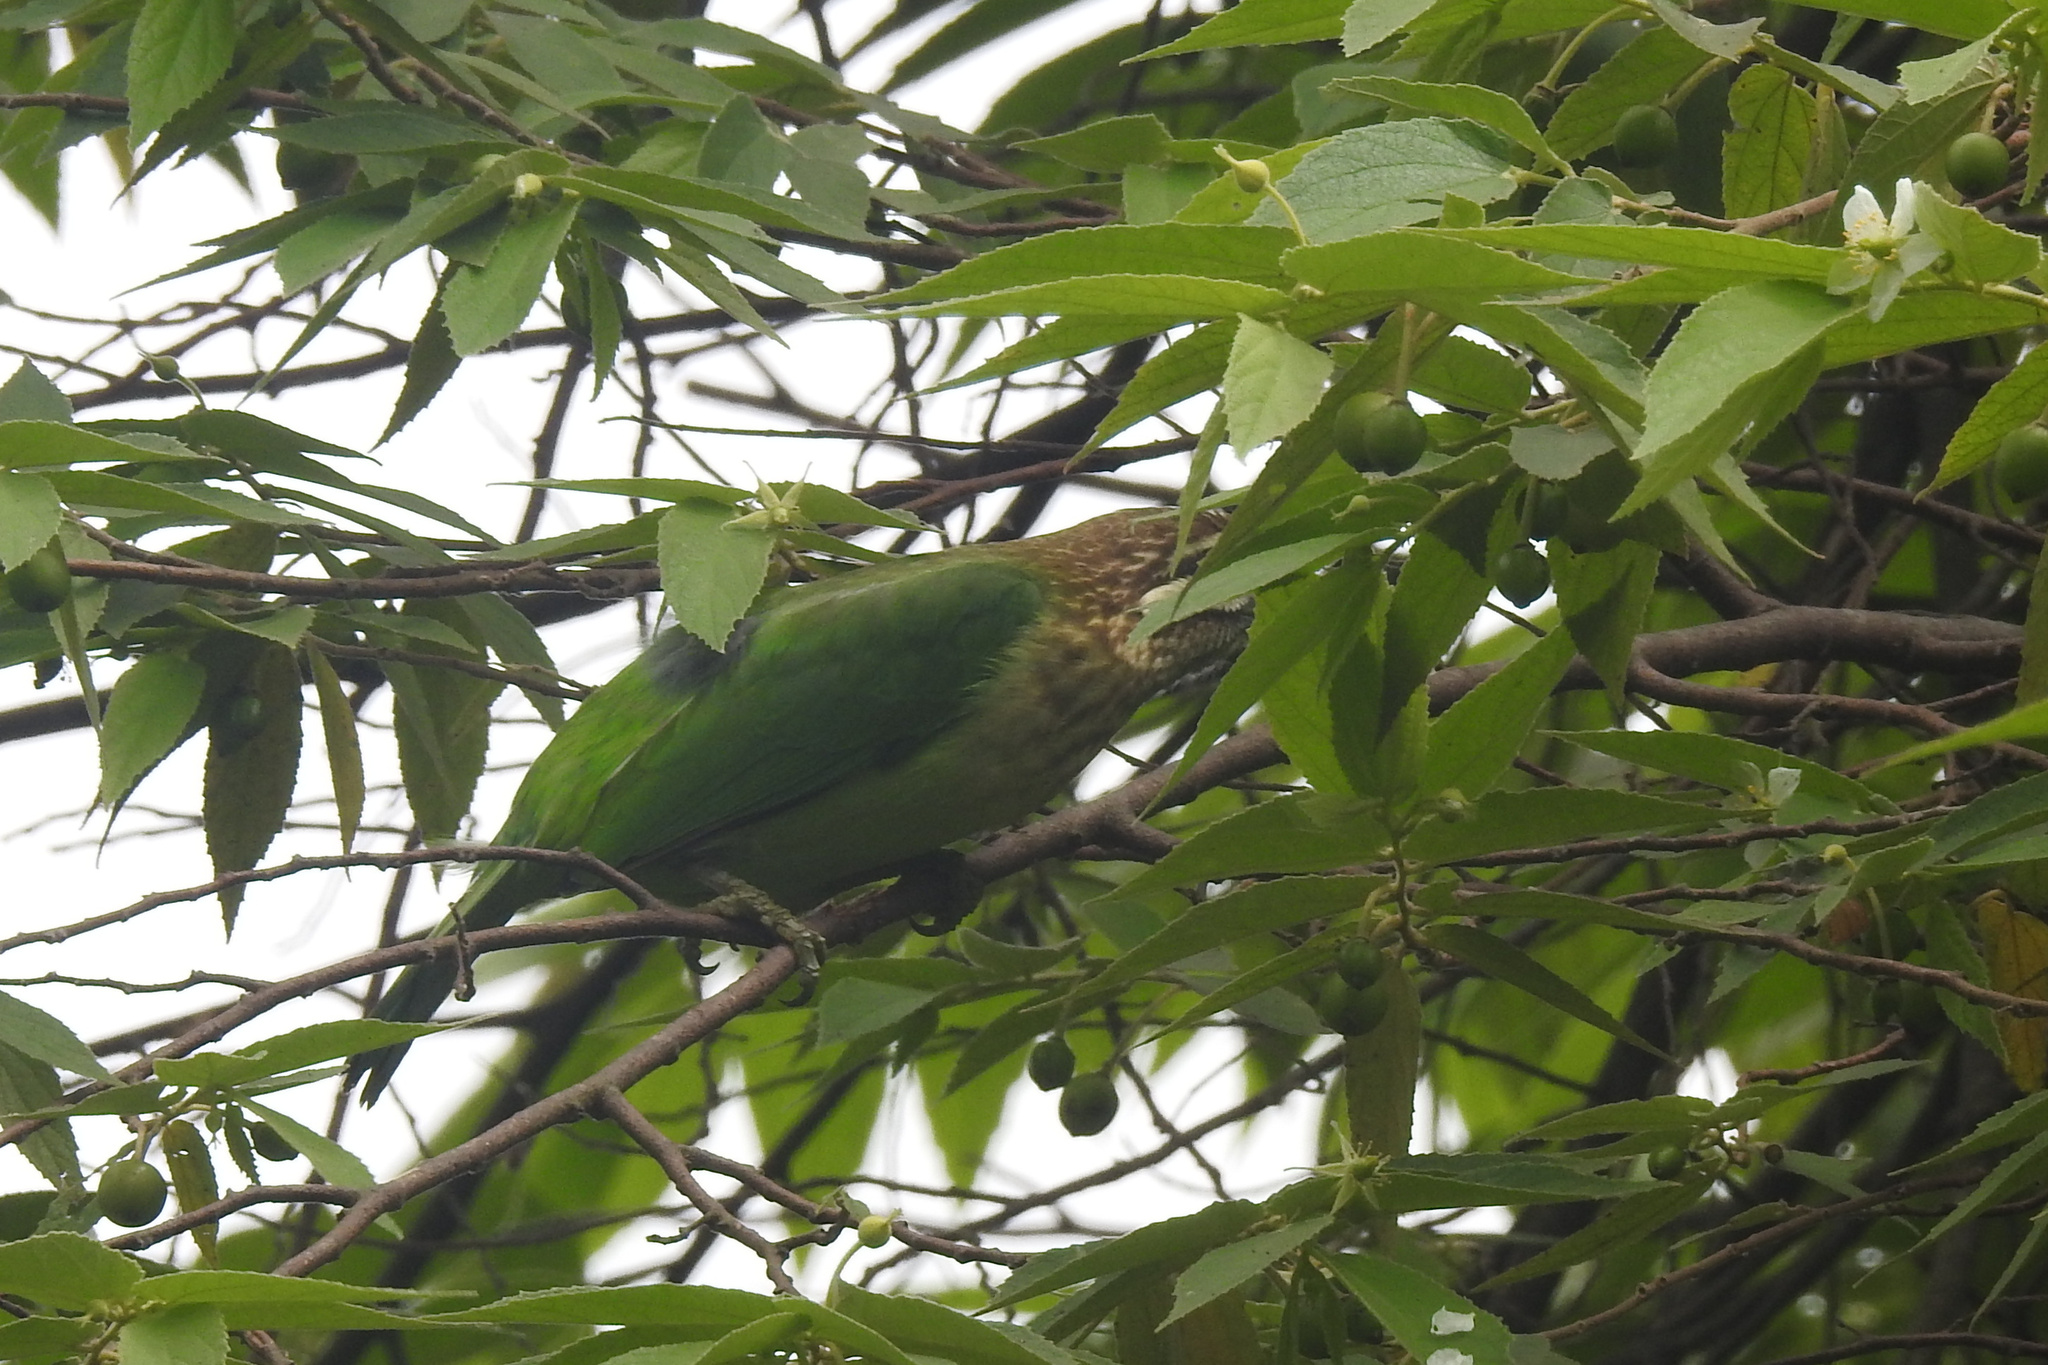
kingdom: Animalia
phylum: Chordata
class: Aves
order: Piciformes
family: Megalaimidae
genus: Psilopogon
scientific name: Psilopogon viridis
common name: White-cheeked barbet
